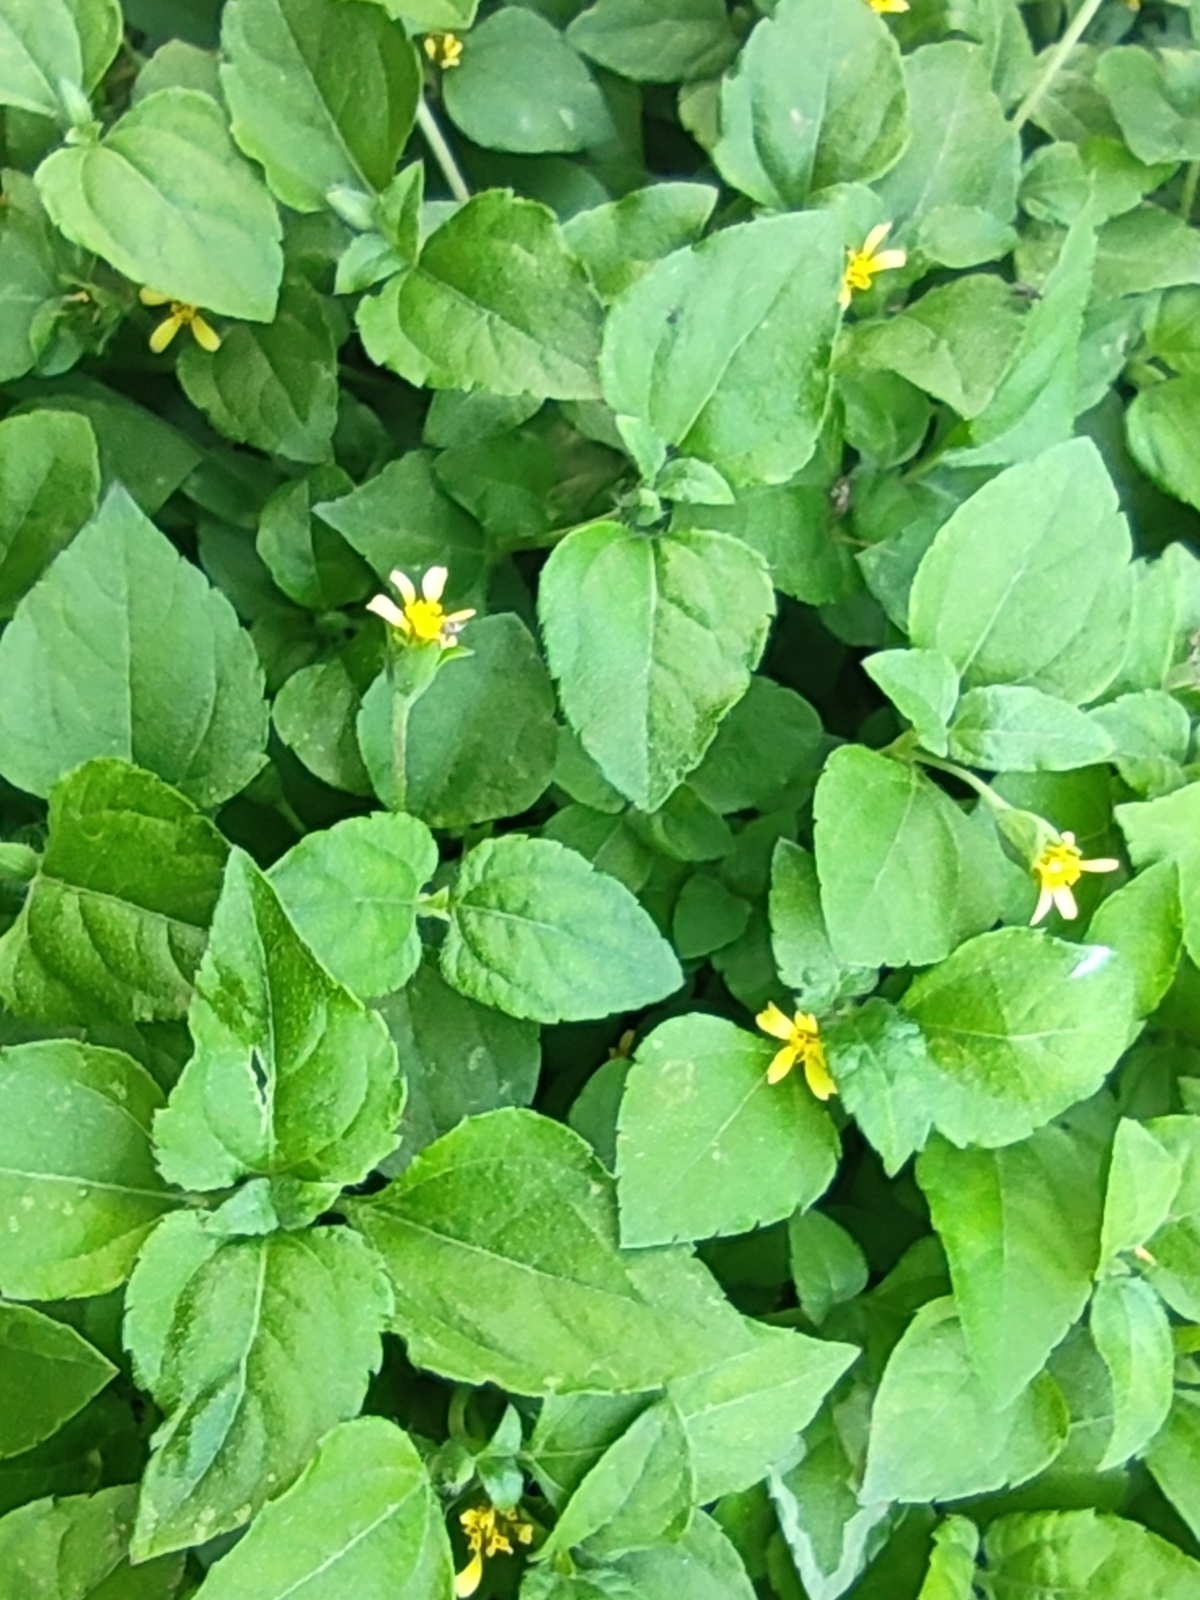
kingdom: Plantae
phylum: Tracheophyta
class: Magnoliopsida
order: Asterales
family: Asteraceae
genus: Calyptocarpus
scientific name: Calyptocarpus vialis
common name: Straggler daisy
